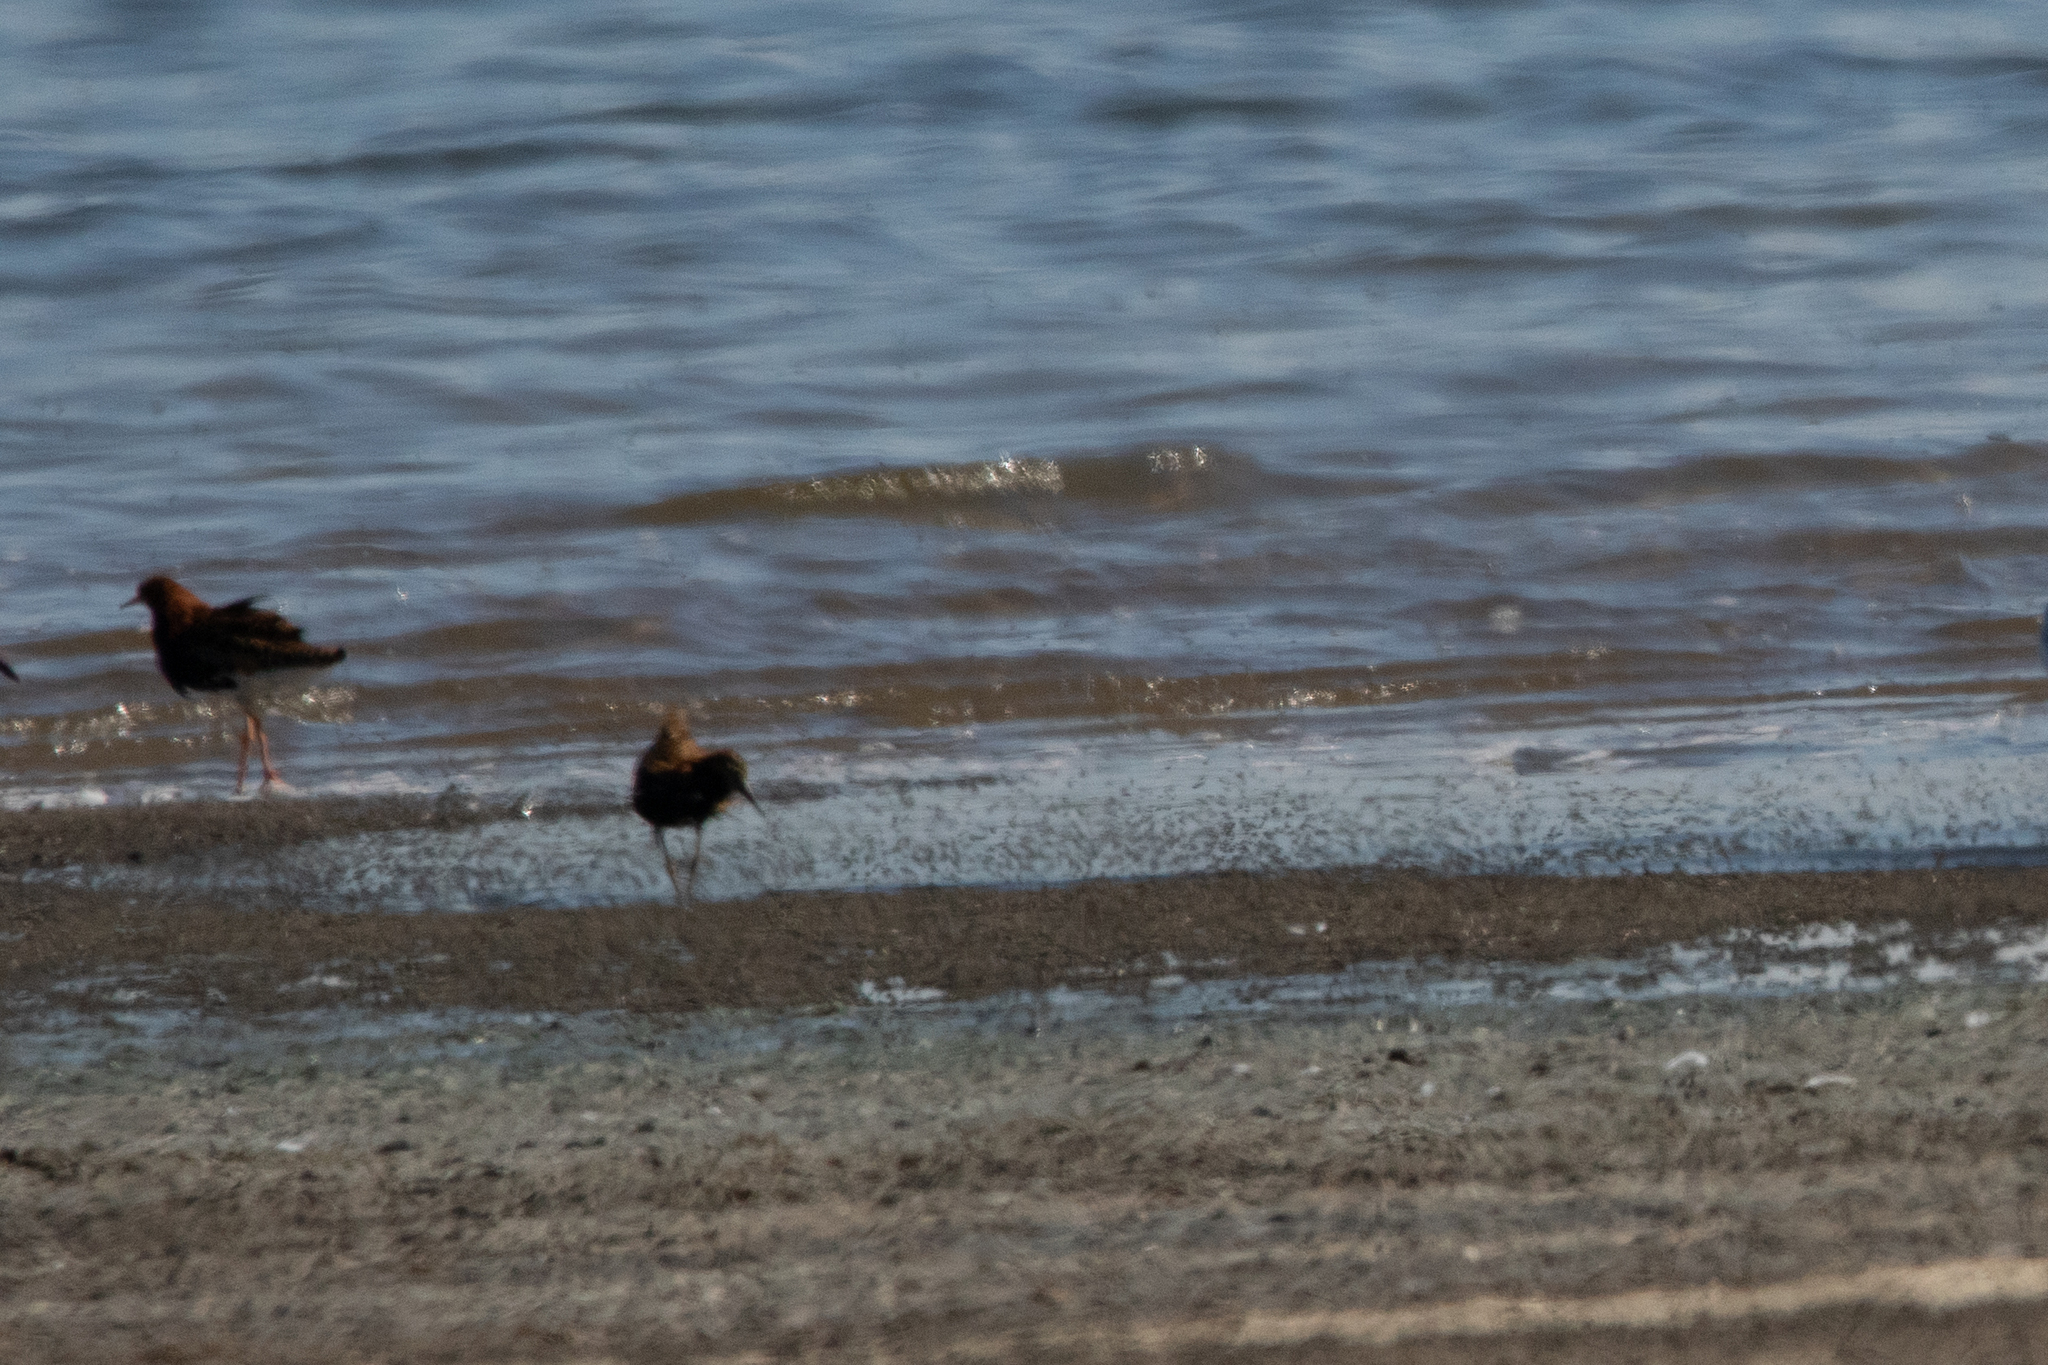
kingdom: Animalia
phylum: Chordata
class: Aves
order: Charadriiformes
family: Scolopacidae
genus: Calidris
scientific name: Calidris pugnax
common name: Ruff
